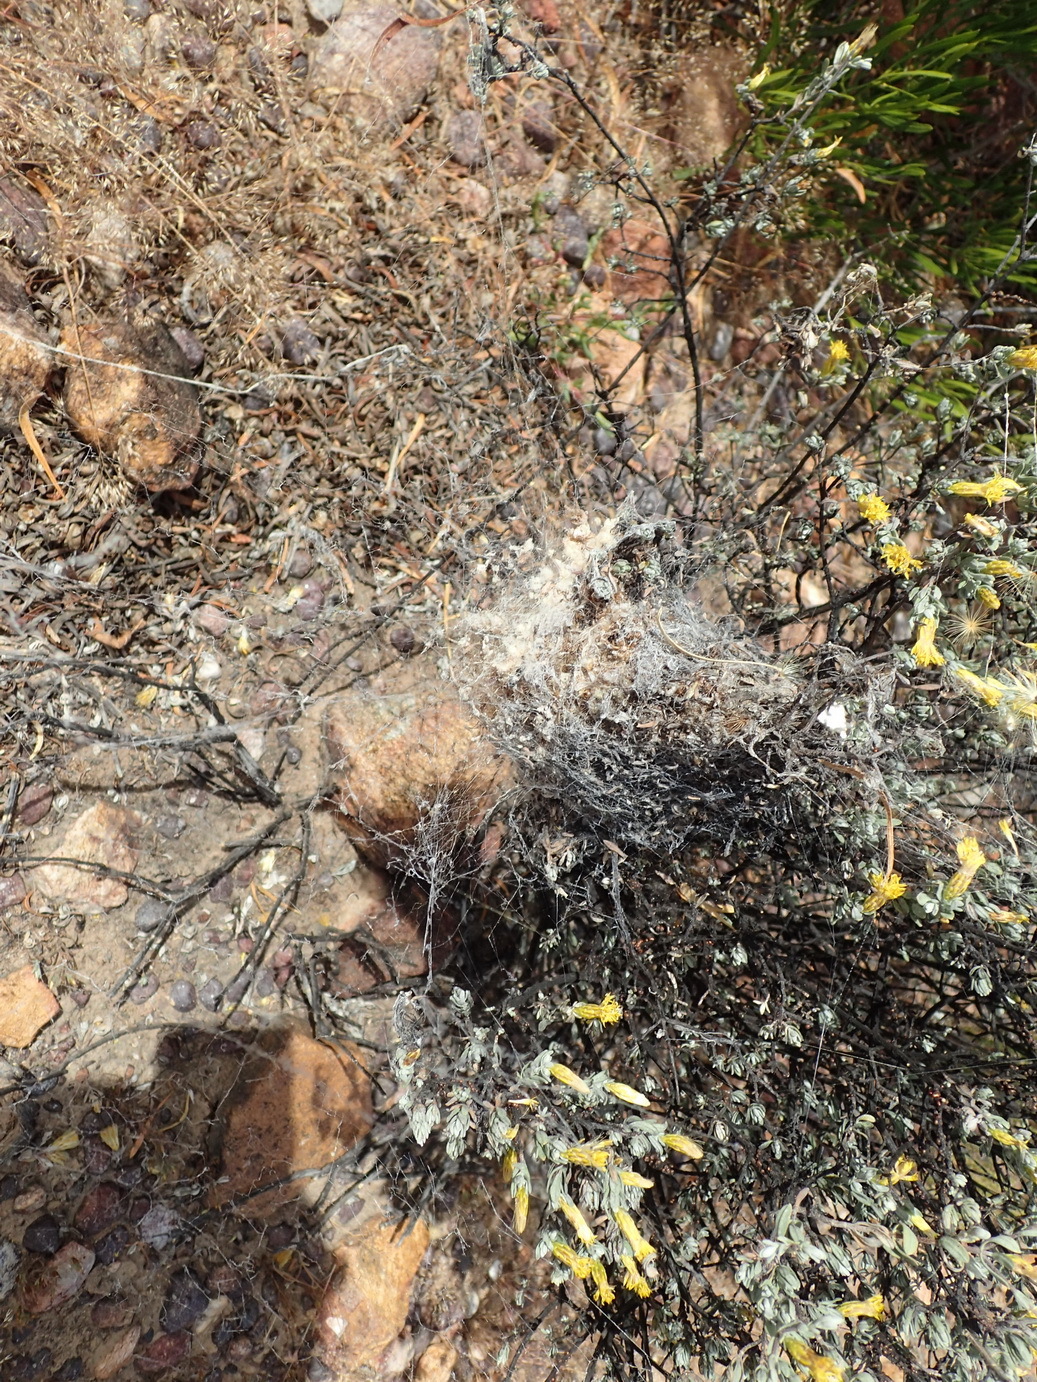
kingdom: Animalia
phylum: Arthropoda
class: Arachnida
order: Araneae
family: Eresidae
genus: Stegodyphus
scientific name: Stegodyphus dumicola
